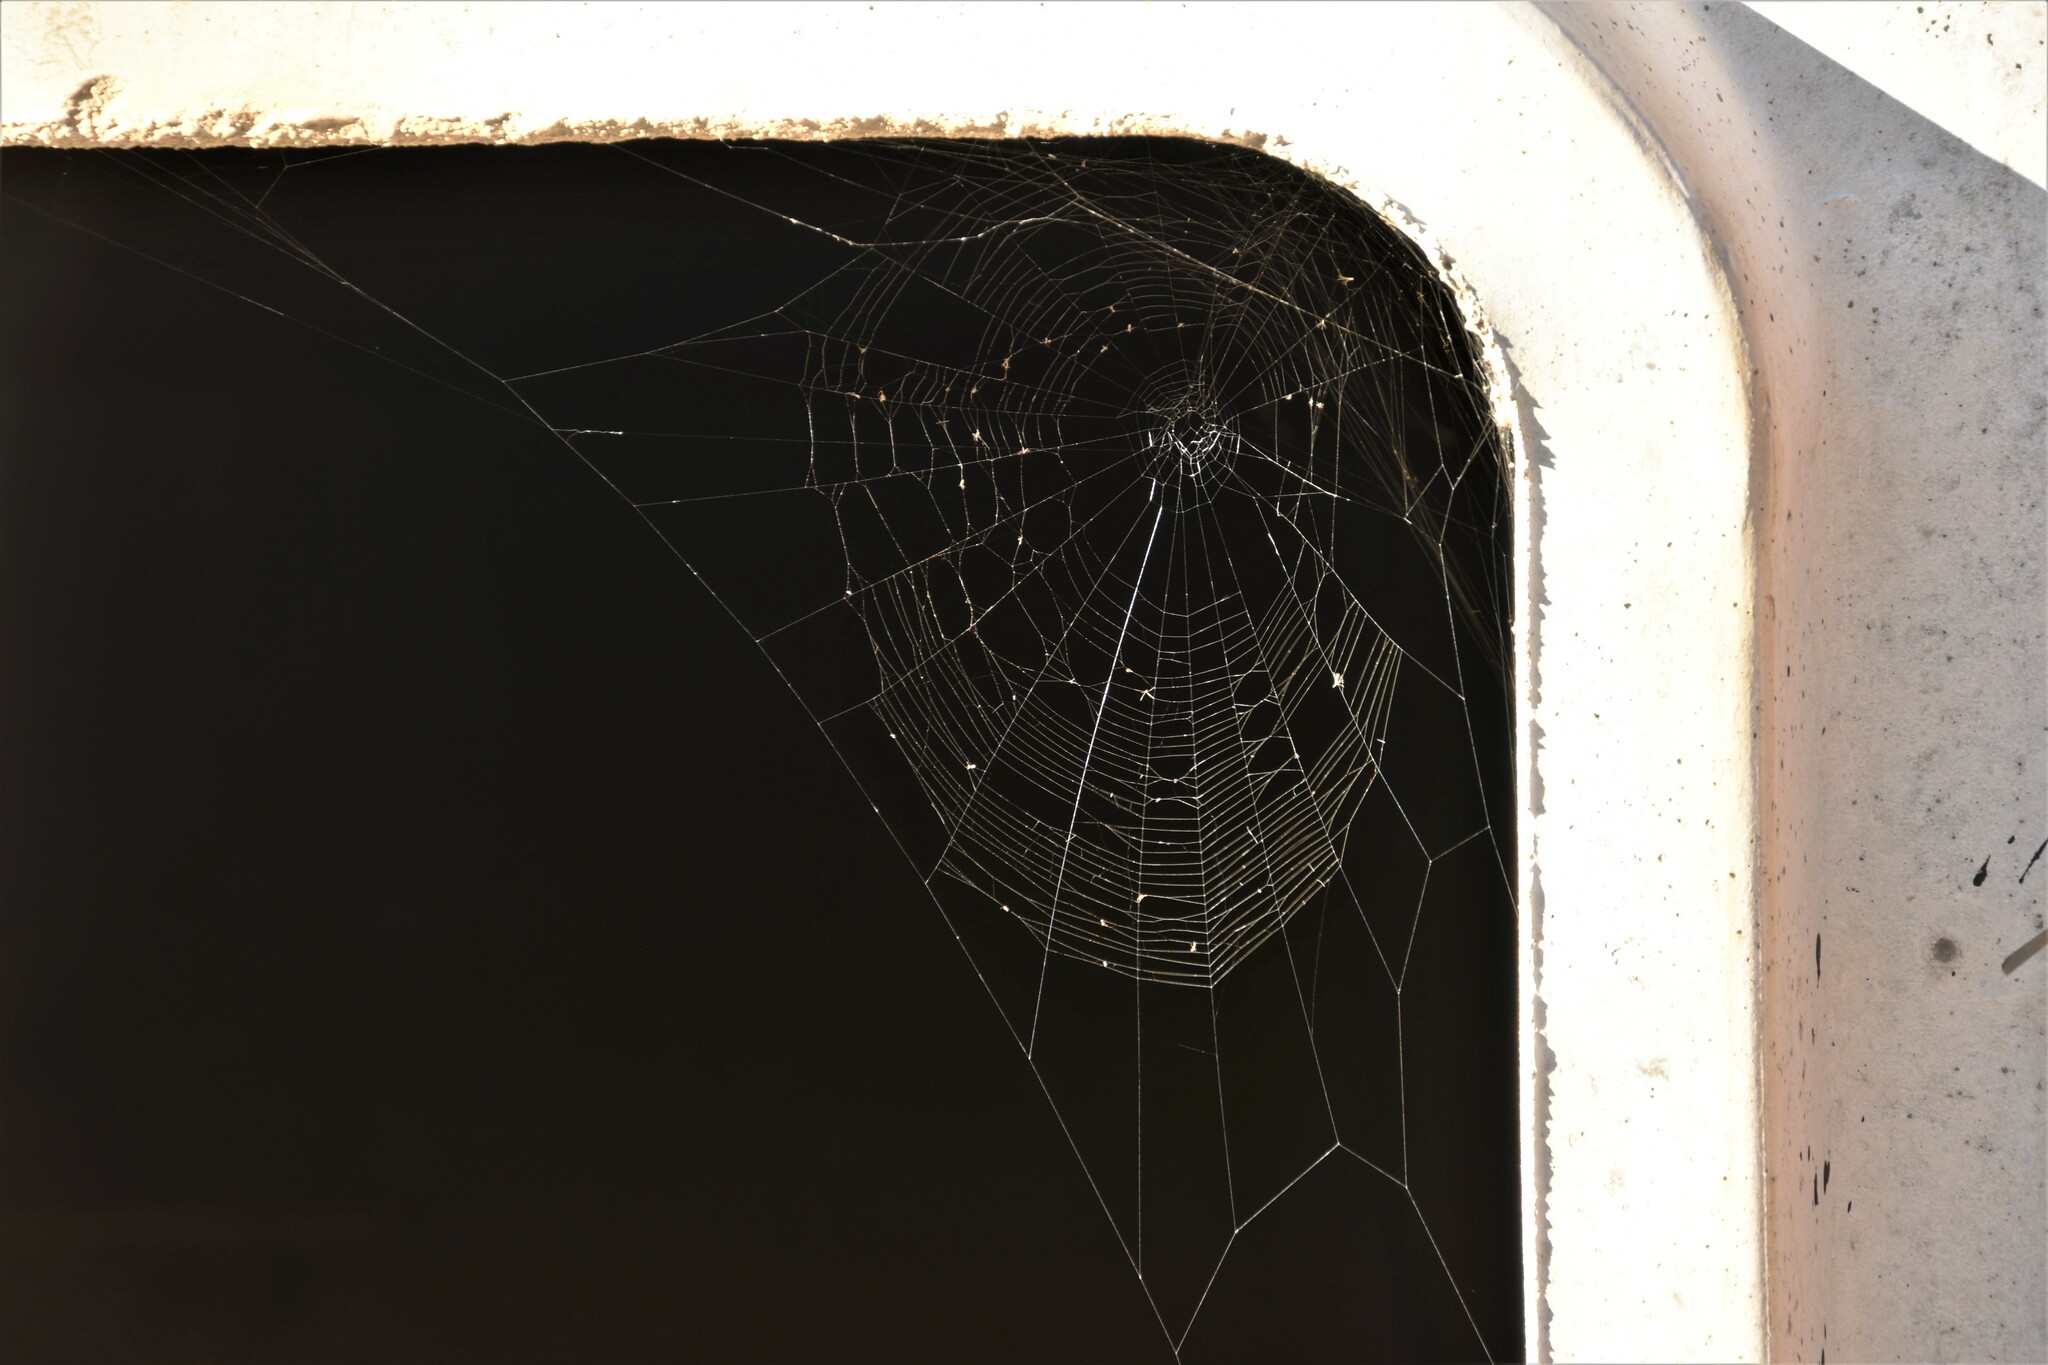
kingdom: Animalia
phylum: Arthropoda
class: Arachnida
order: Araneae
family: Araneidae
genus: Araneus
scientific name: Araneus diadematus
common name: Cross orbweaver
